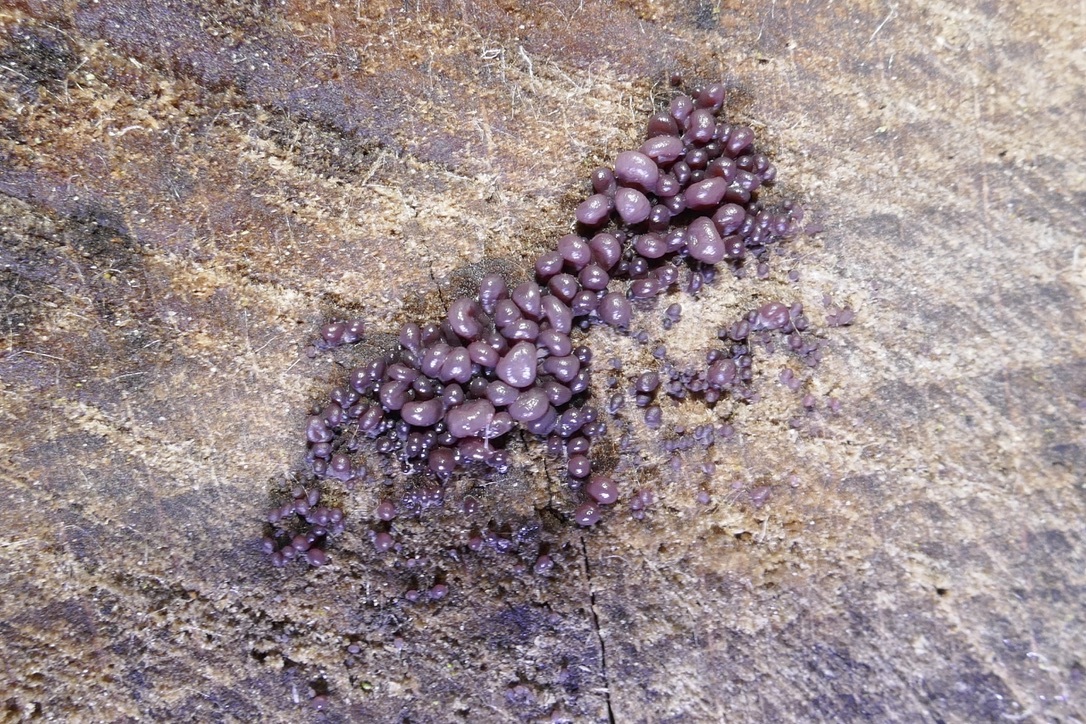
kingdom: Fungi
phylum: Ascomycota
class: Leotiomycetes
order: Helotiales
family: Gelatinodiscaceae
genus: Ascocoryne
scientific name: Ascocoryne sarcoides
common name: Purple jellydisc
